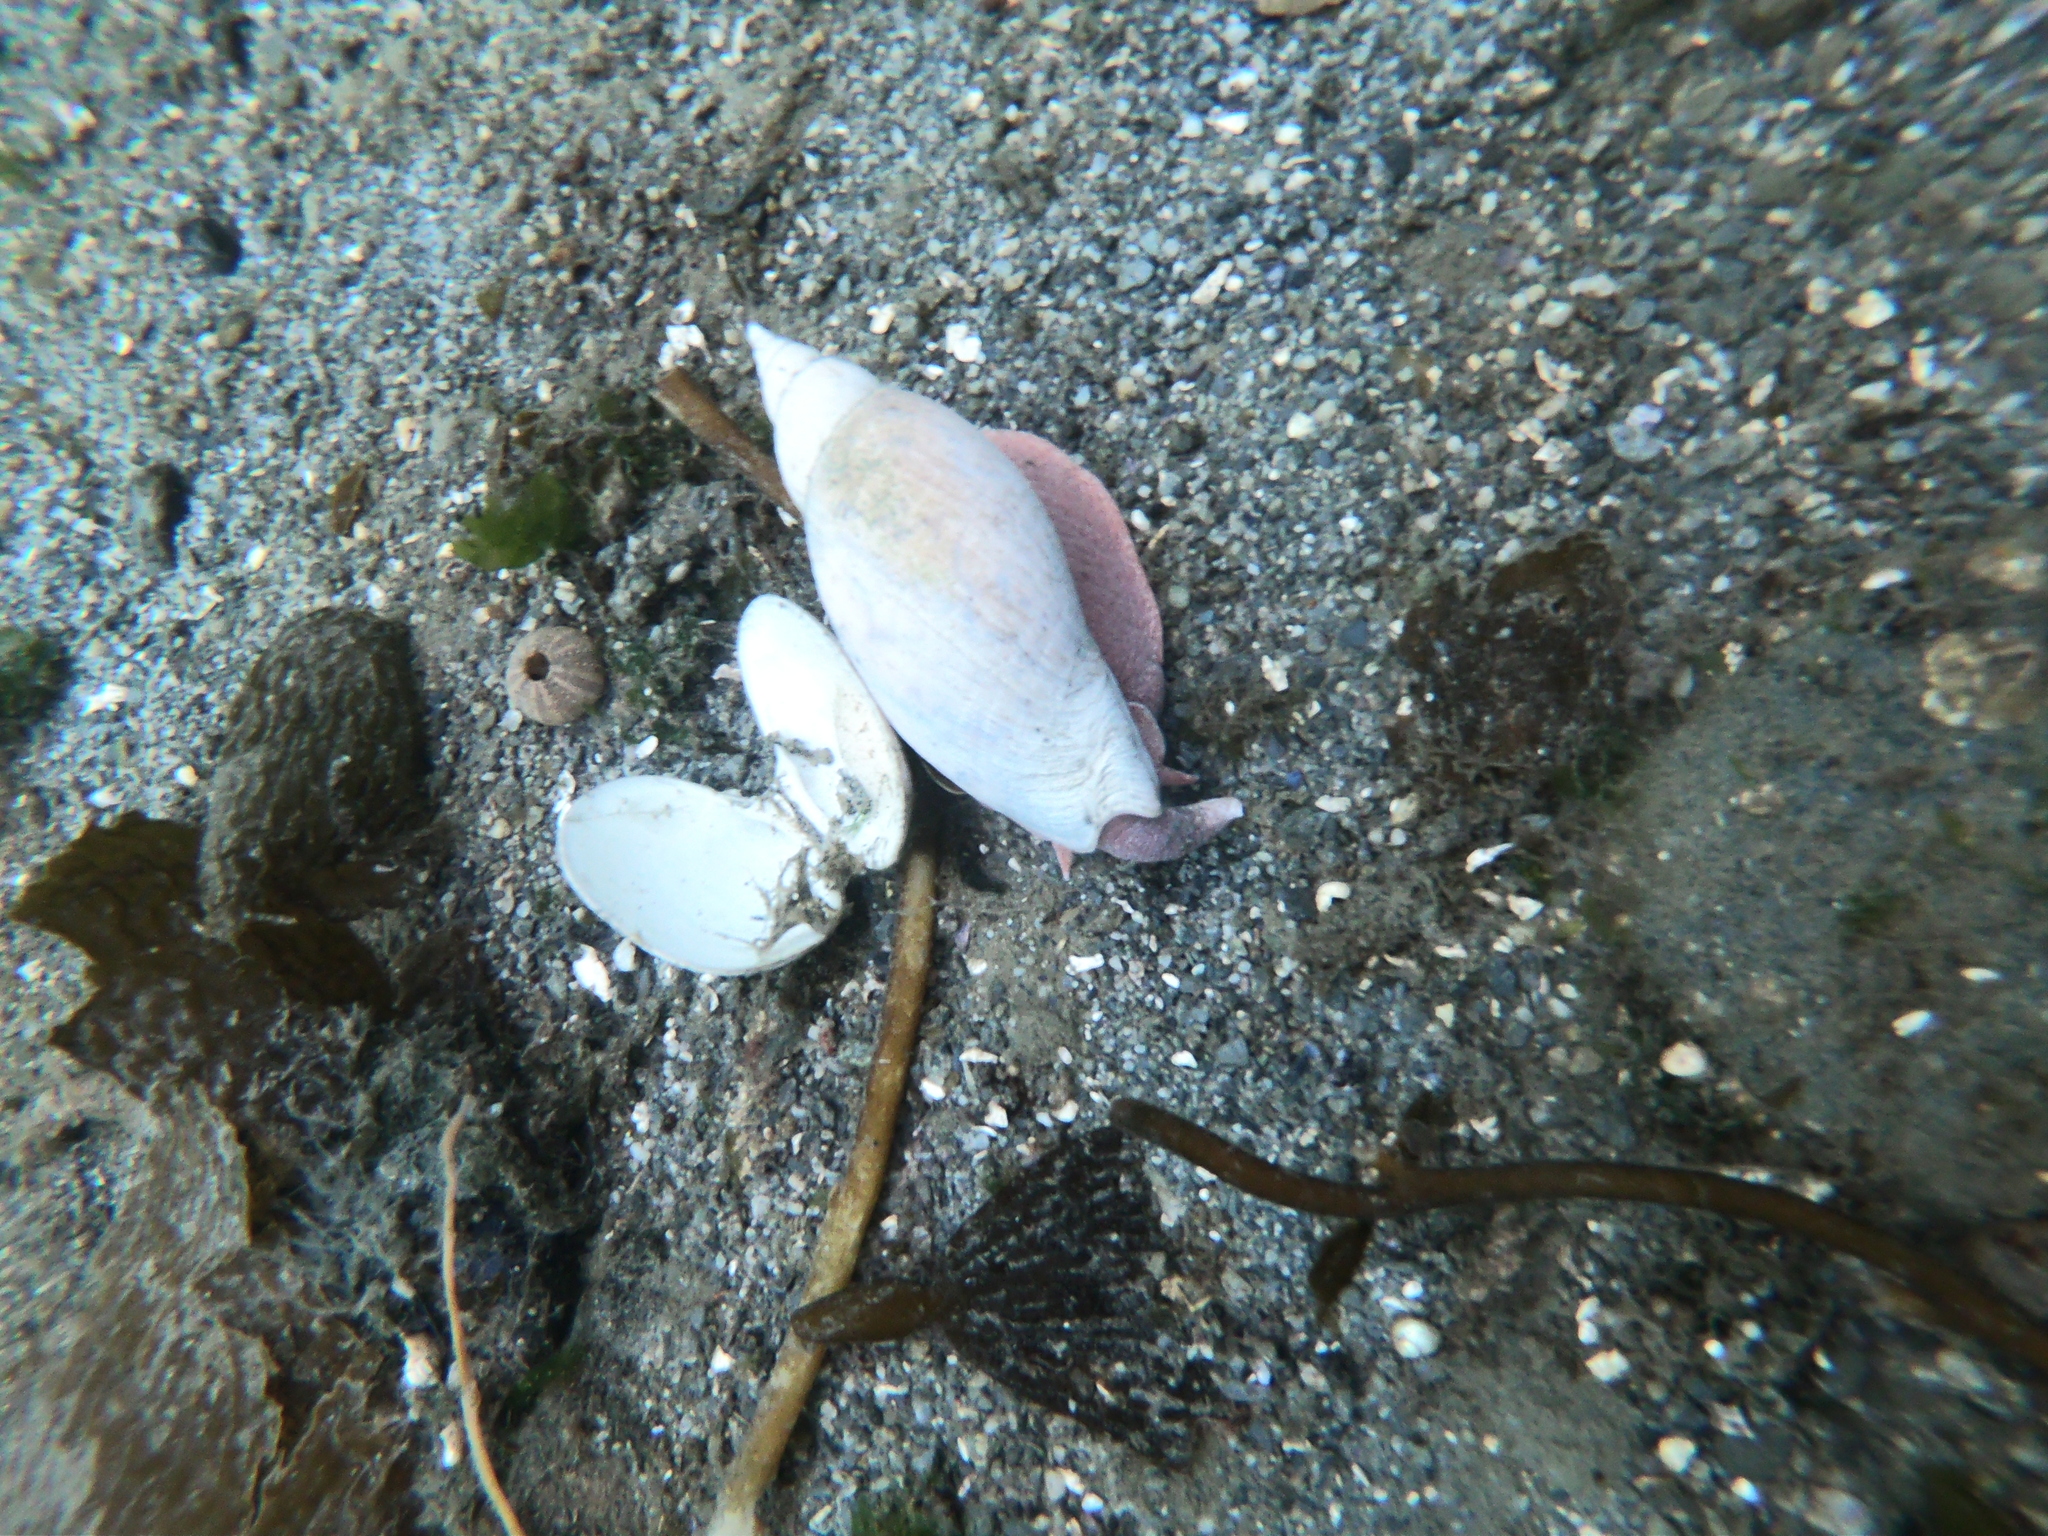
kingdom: Animalia
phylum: Mollusca
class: Gastropoda
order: Neogastropoda
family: Volutidae
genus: Adelomelon
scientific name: Adelomelon ancilla
